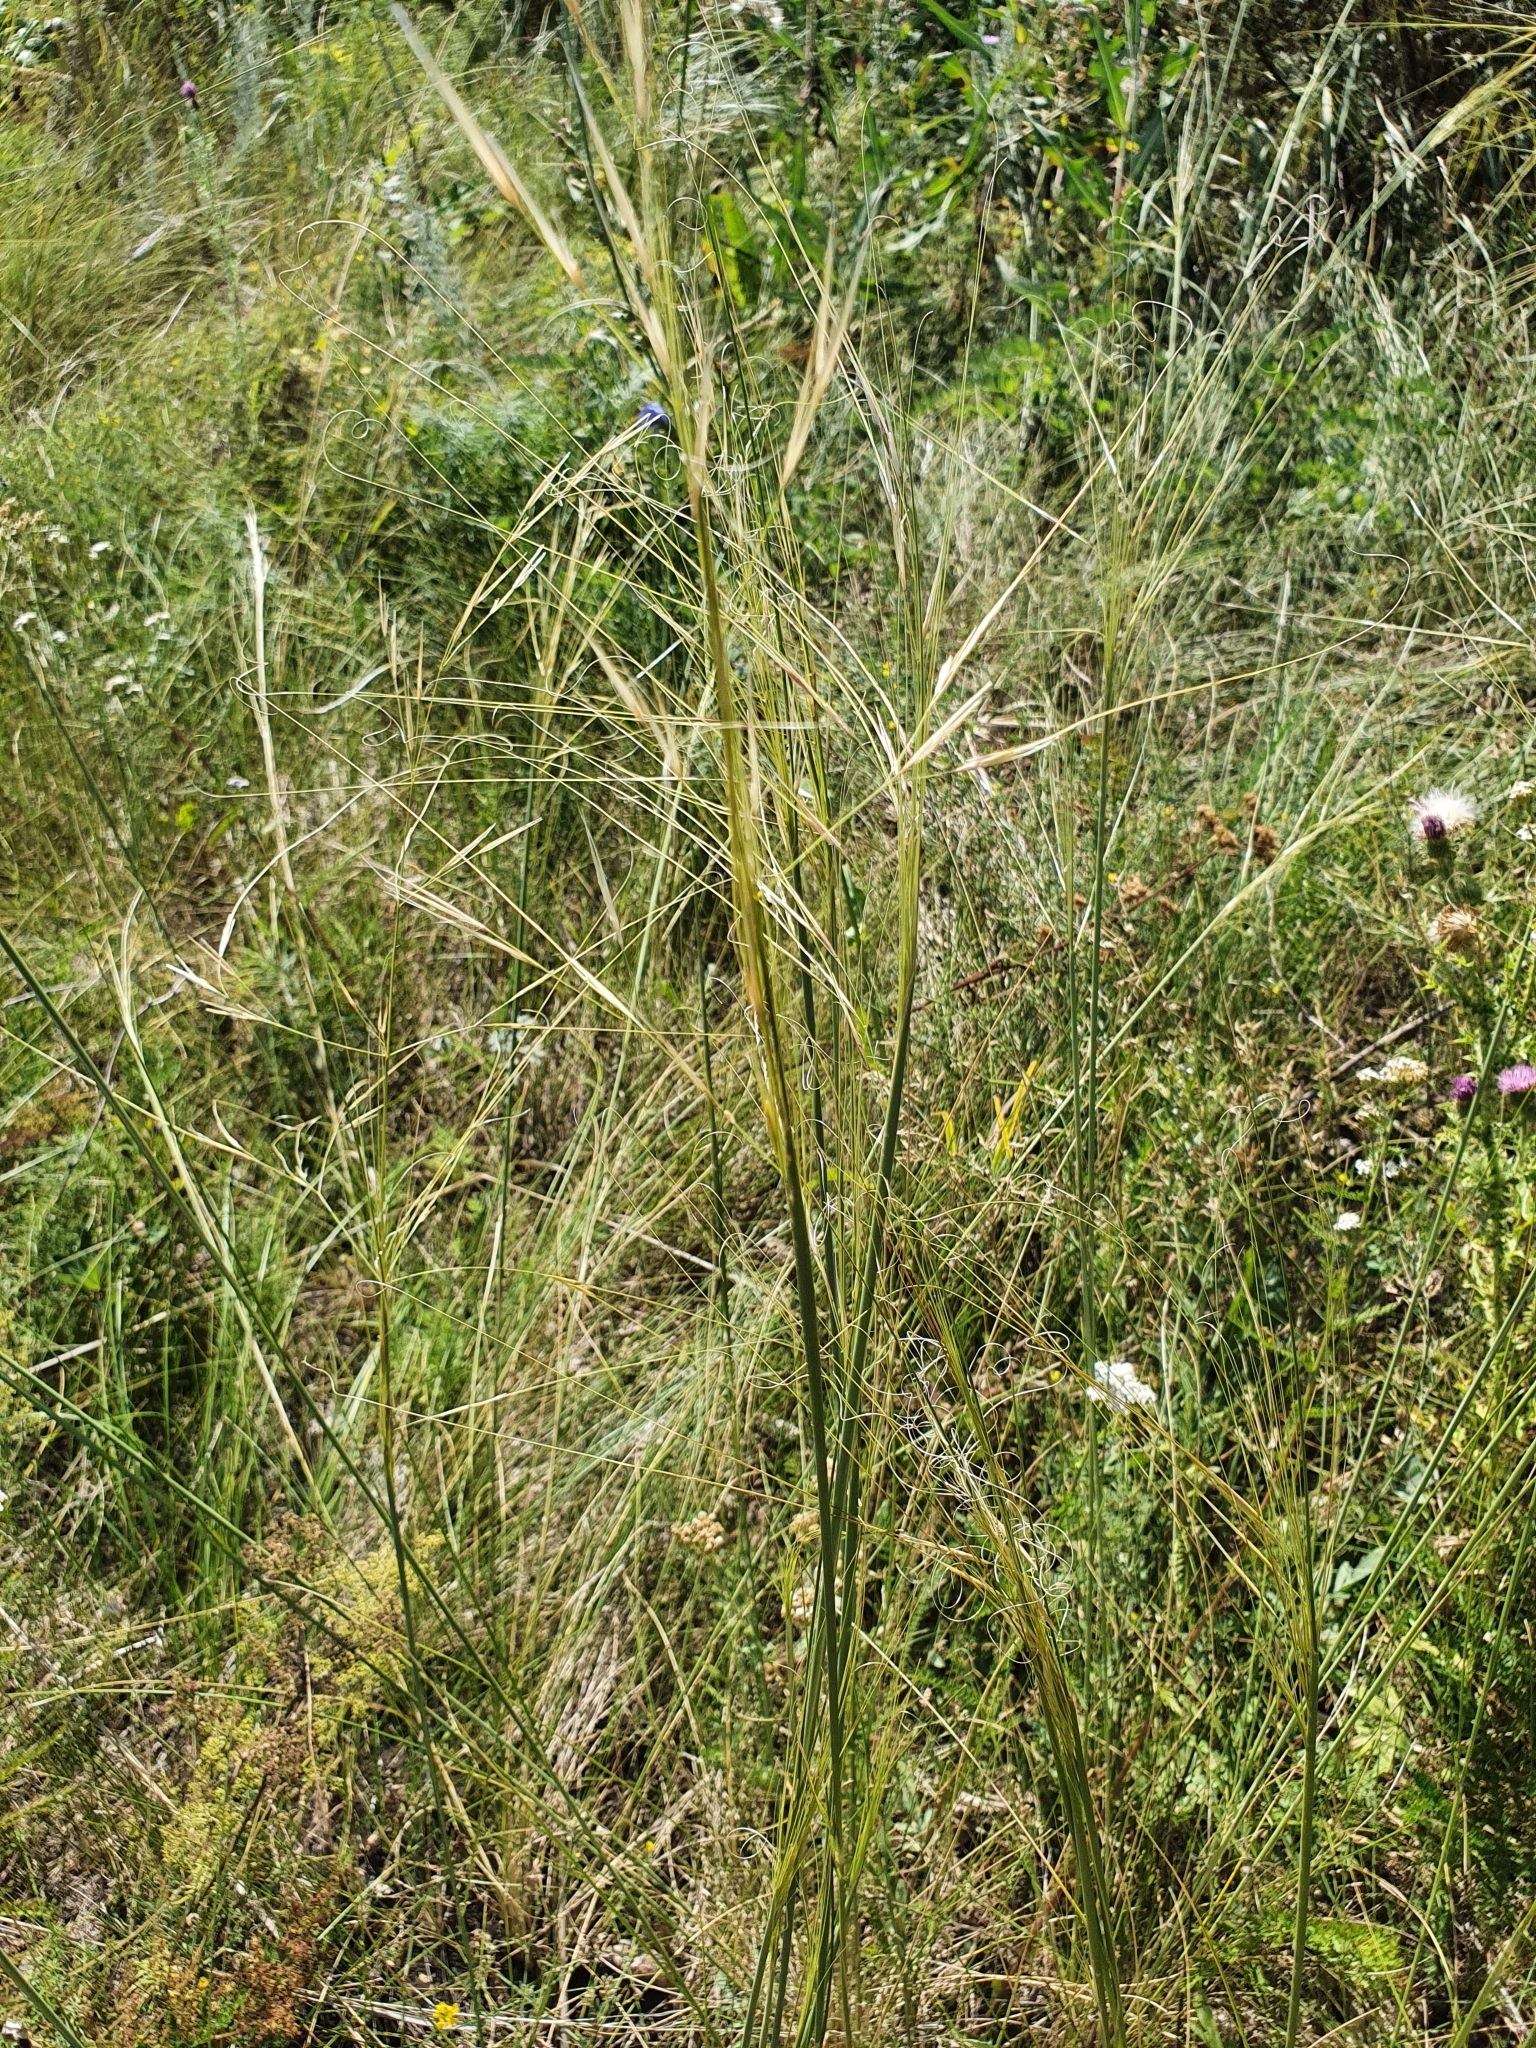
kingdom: Plantae
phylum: Tracheophyta
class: Liliopsida
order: Poales
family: Poaceae
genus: Stipa
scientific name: Stipa capillata
